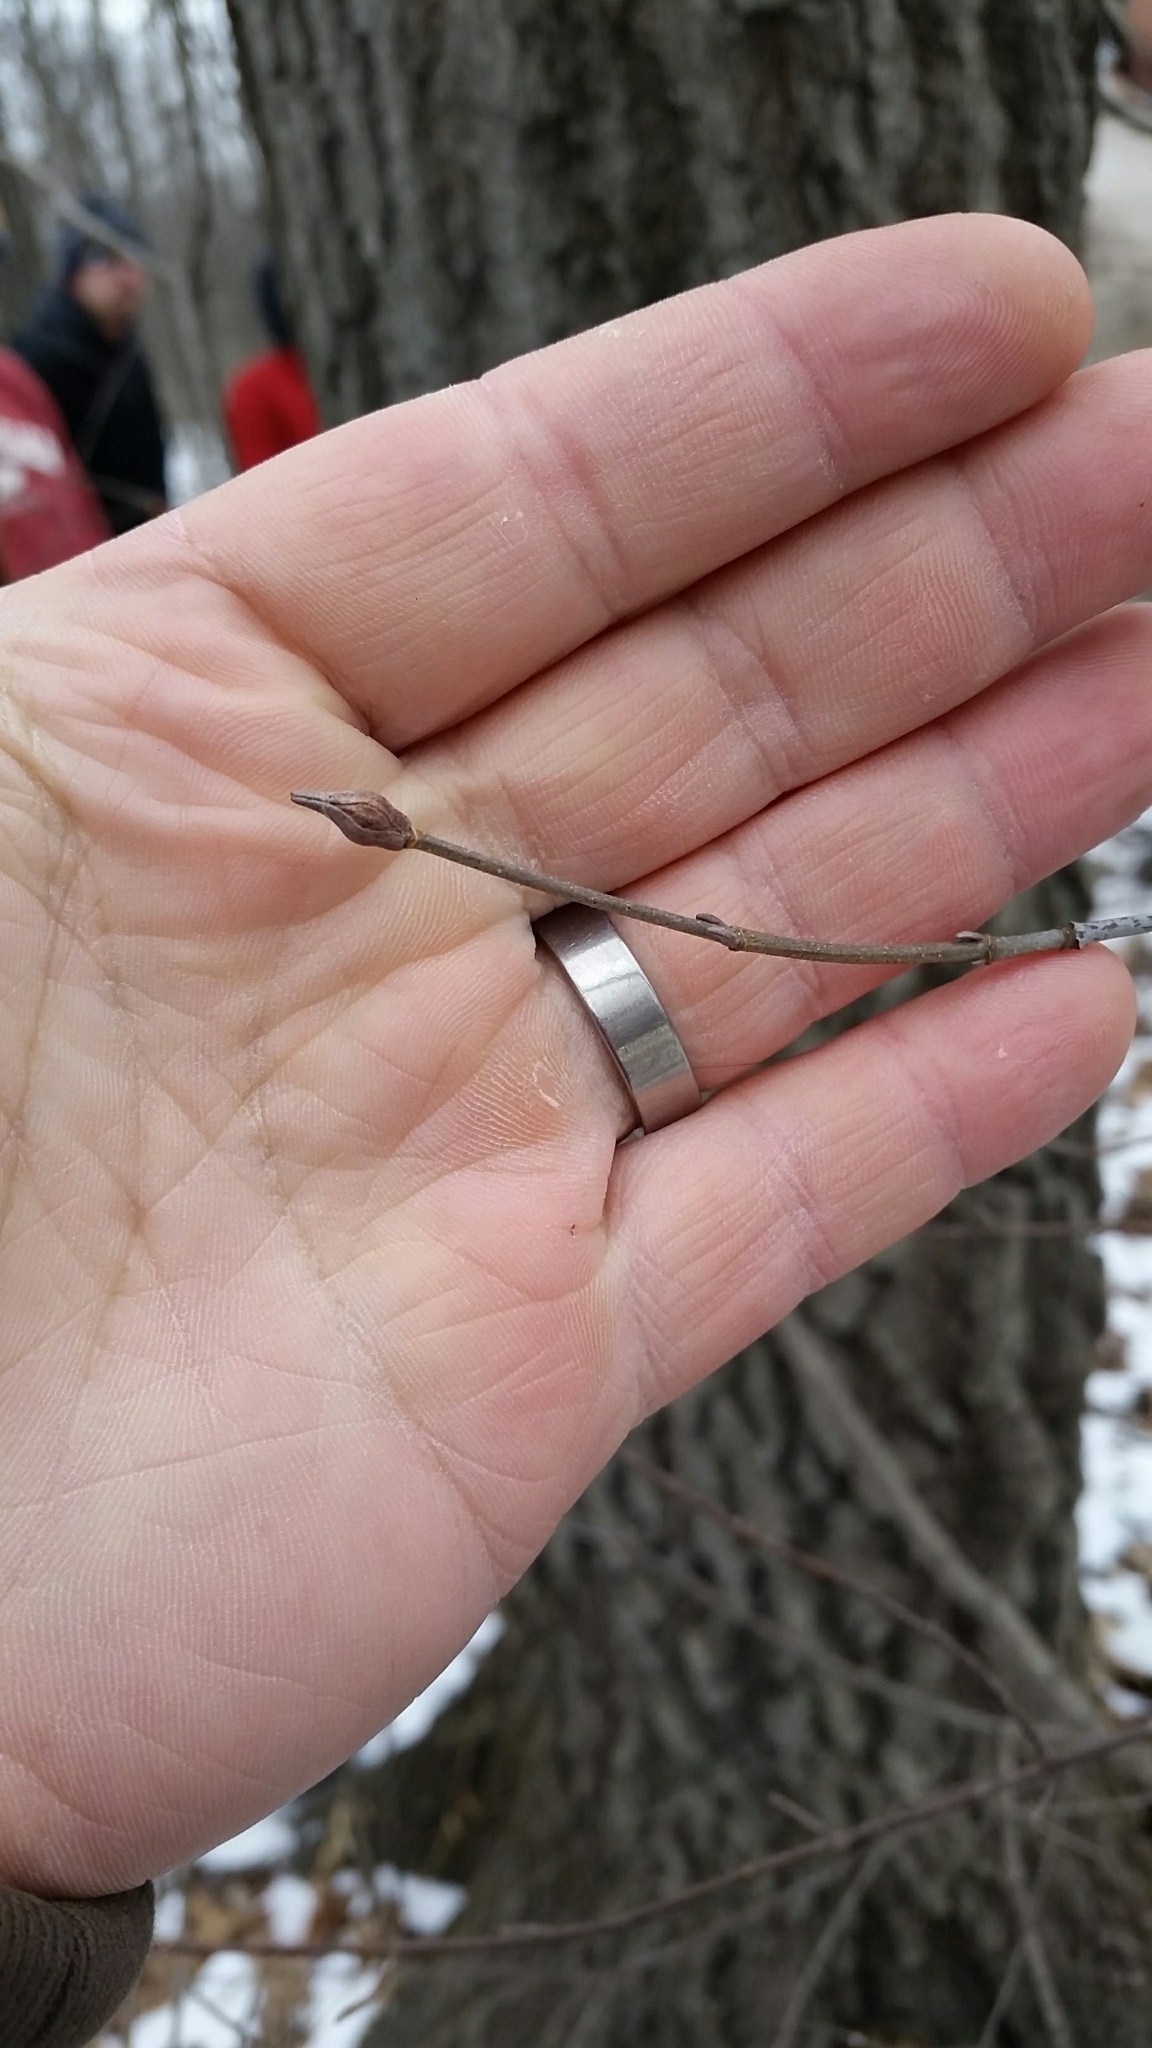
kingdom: Plantae
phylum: Tracheophyta
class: Magnoliopsida
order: Dipsacales
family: Viburnaceae
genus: Viburnum
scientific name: Viburnum lentago
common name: Black haw
